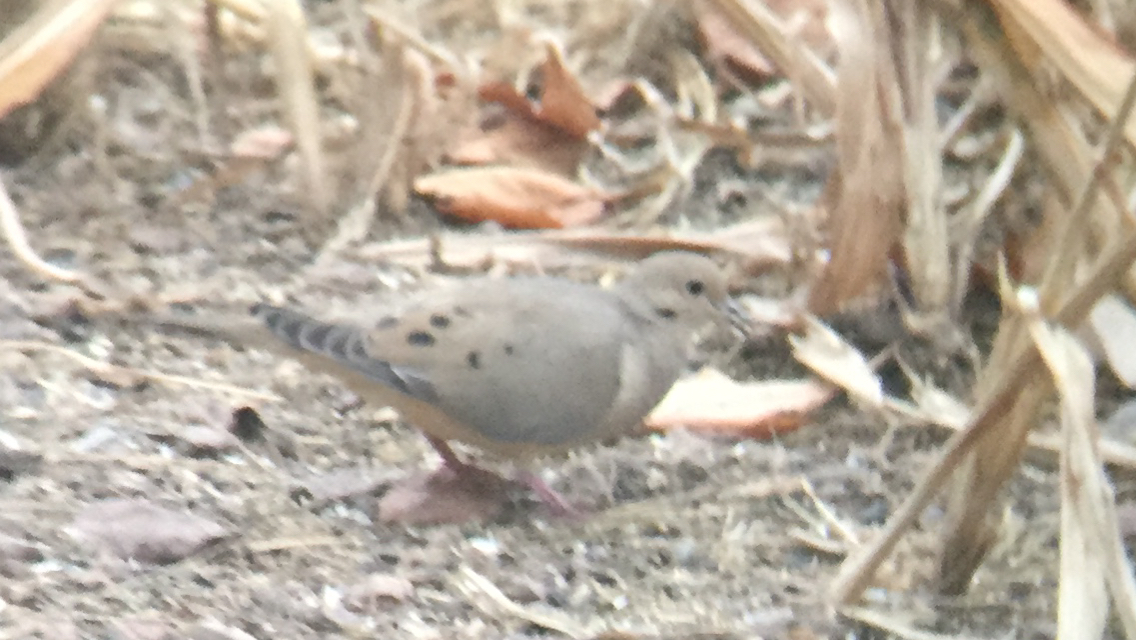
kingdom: Animalia
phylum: Chordata
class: Aves
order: Columbiformes
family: Columbidae
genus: Zenaida
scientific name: Zenaida macroura
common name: Mourning dove
